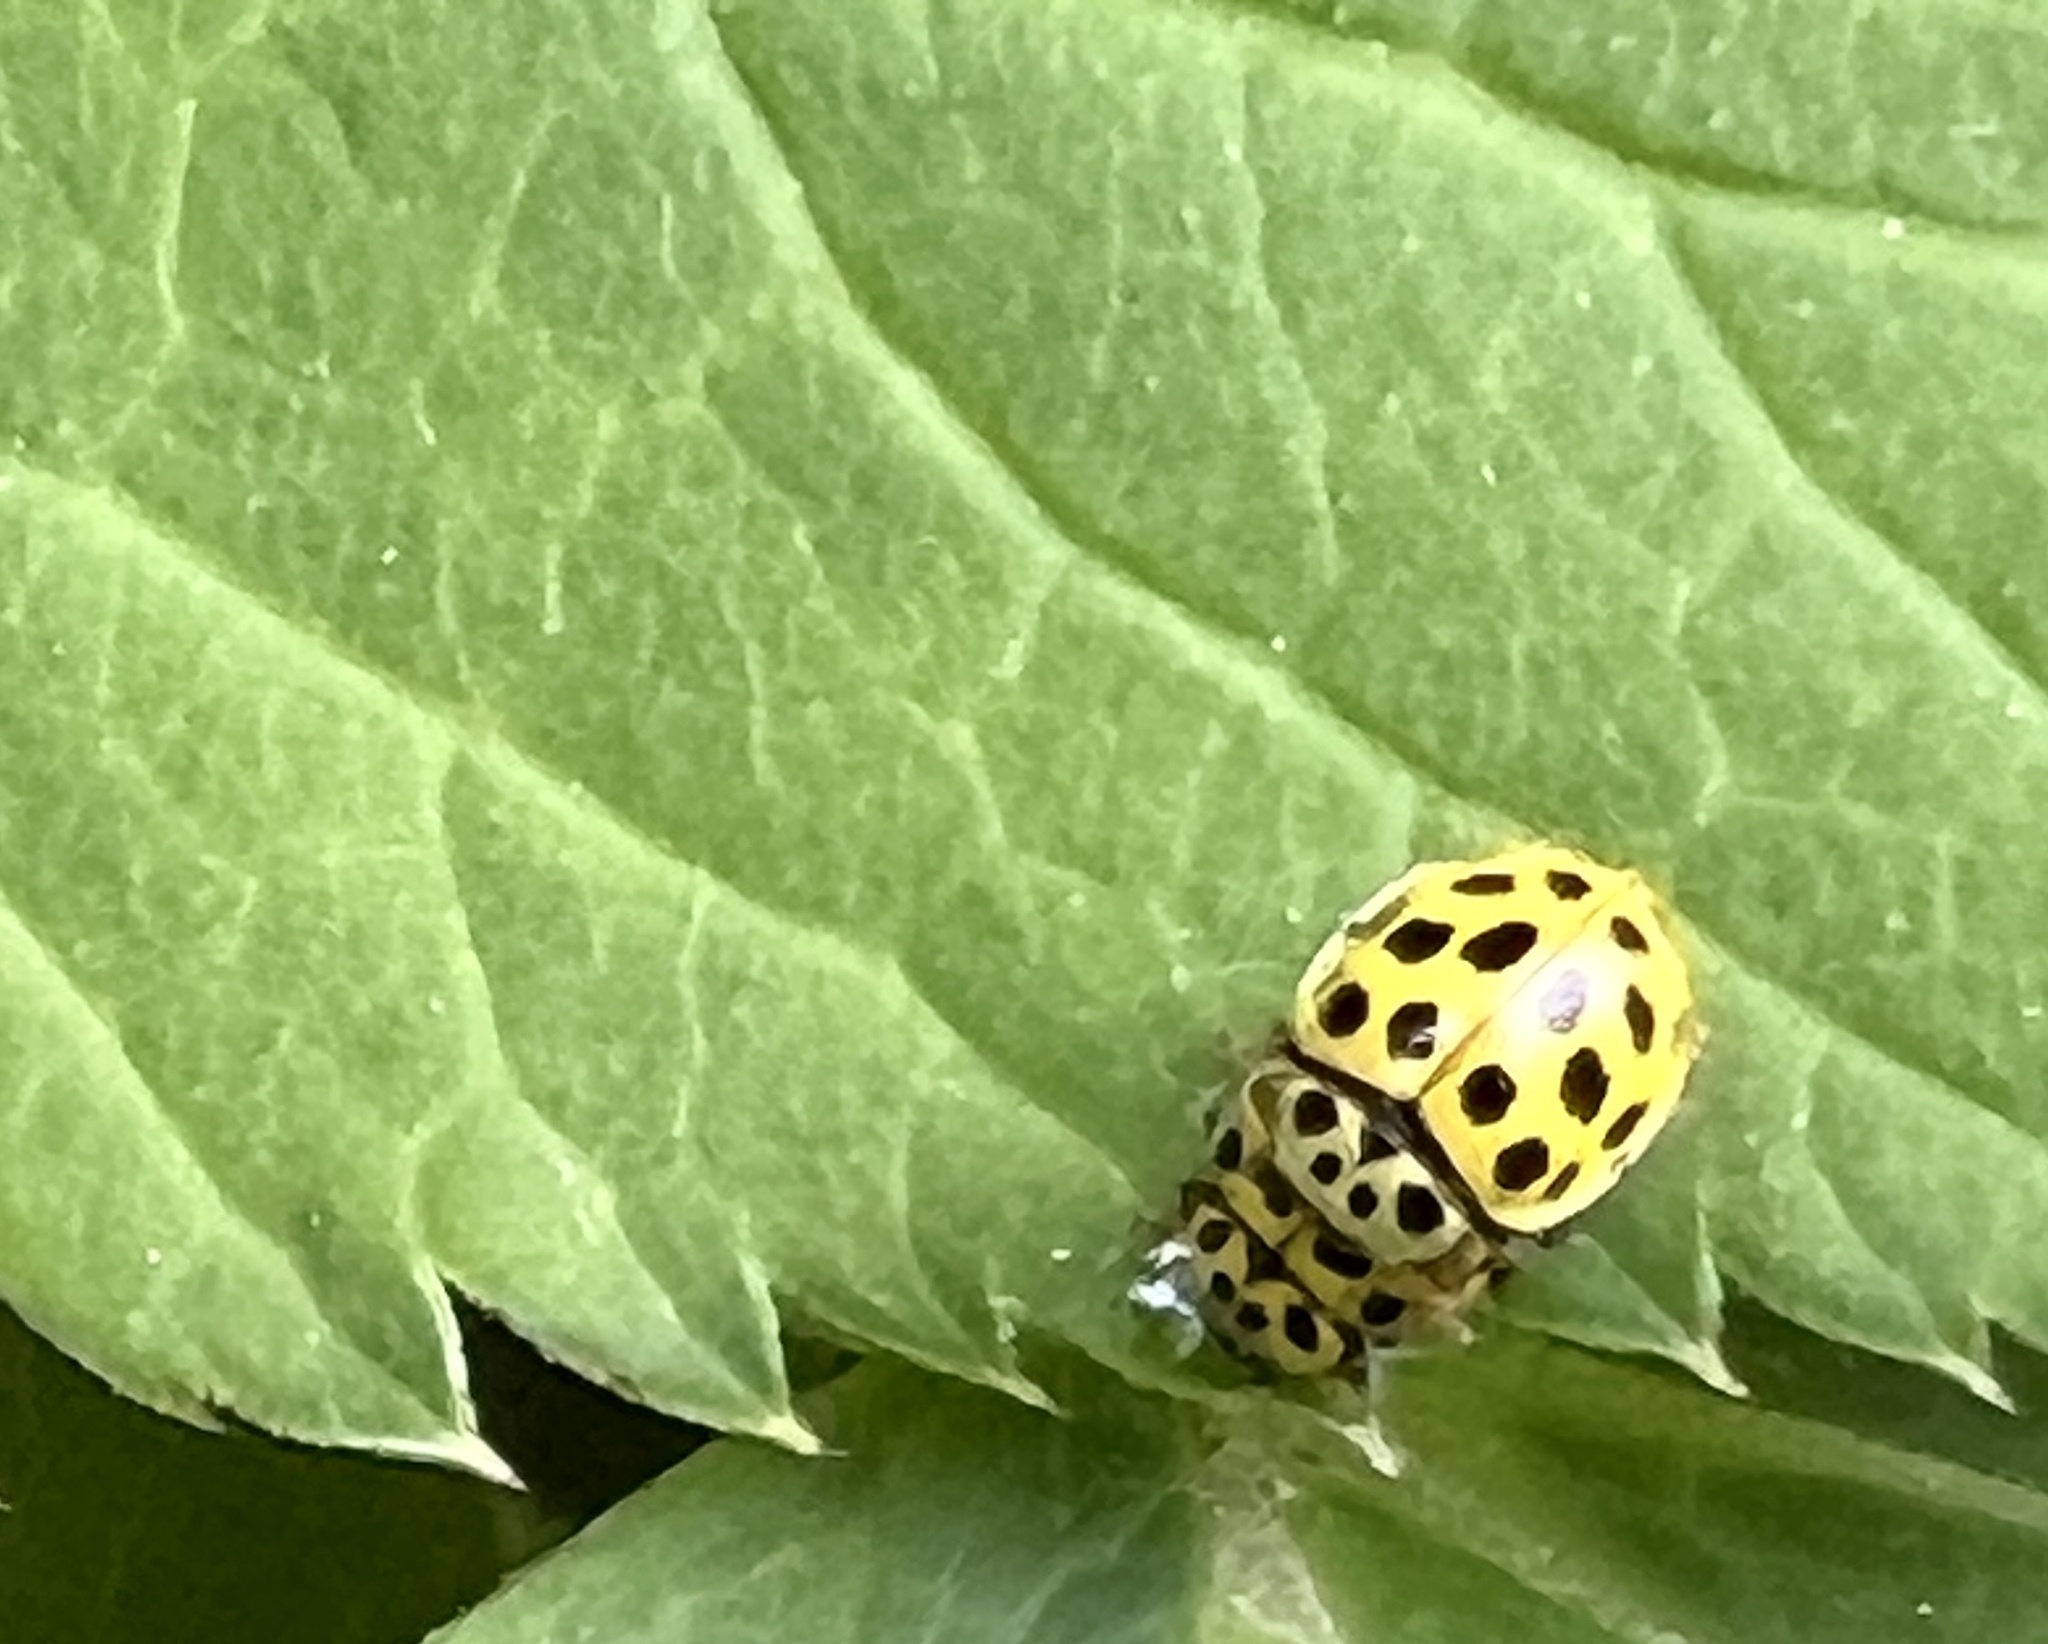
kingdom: Animalia
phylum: Arthropoda
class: Insecta
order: Coleoptera
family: Coccinellidae
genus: Psyllobora
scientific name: Psyllobora vigintiduopunctata
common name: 22-spot ladybird
